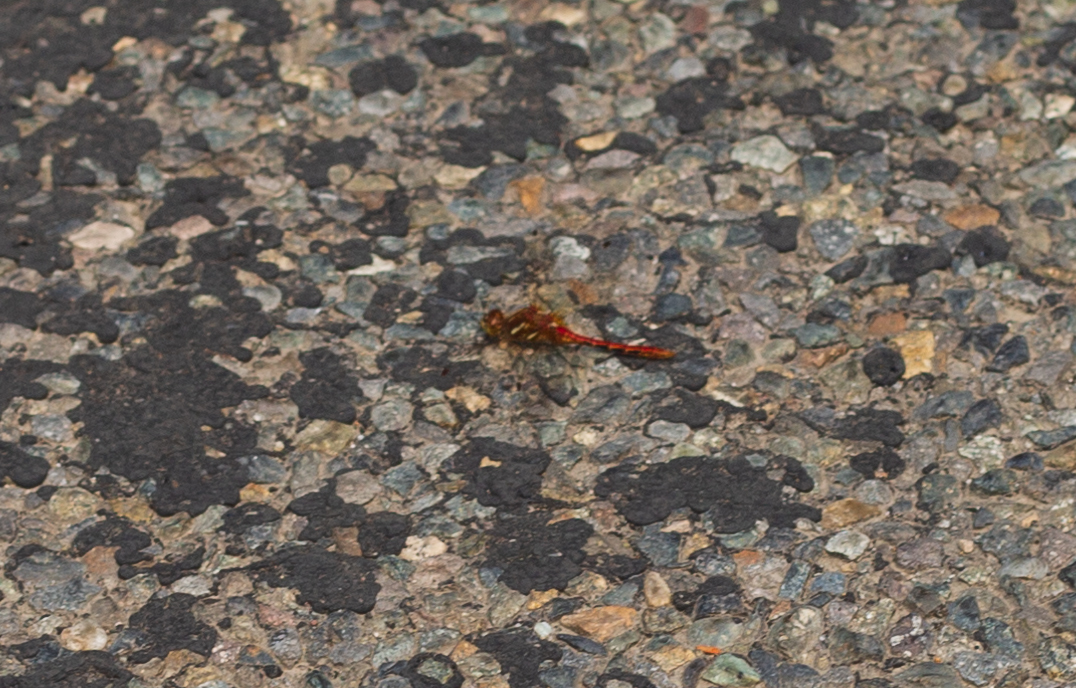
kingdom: Animalia
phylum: Arthropoda
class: Insecta
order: Odonata
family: Libellulidae
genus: Sympetrum
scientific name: Sympetrum pallipes
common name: Striped meadowhawk
